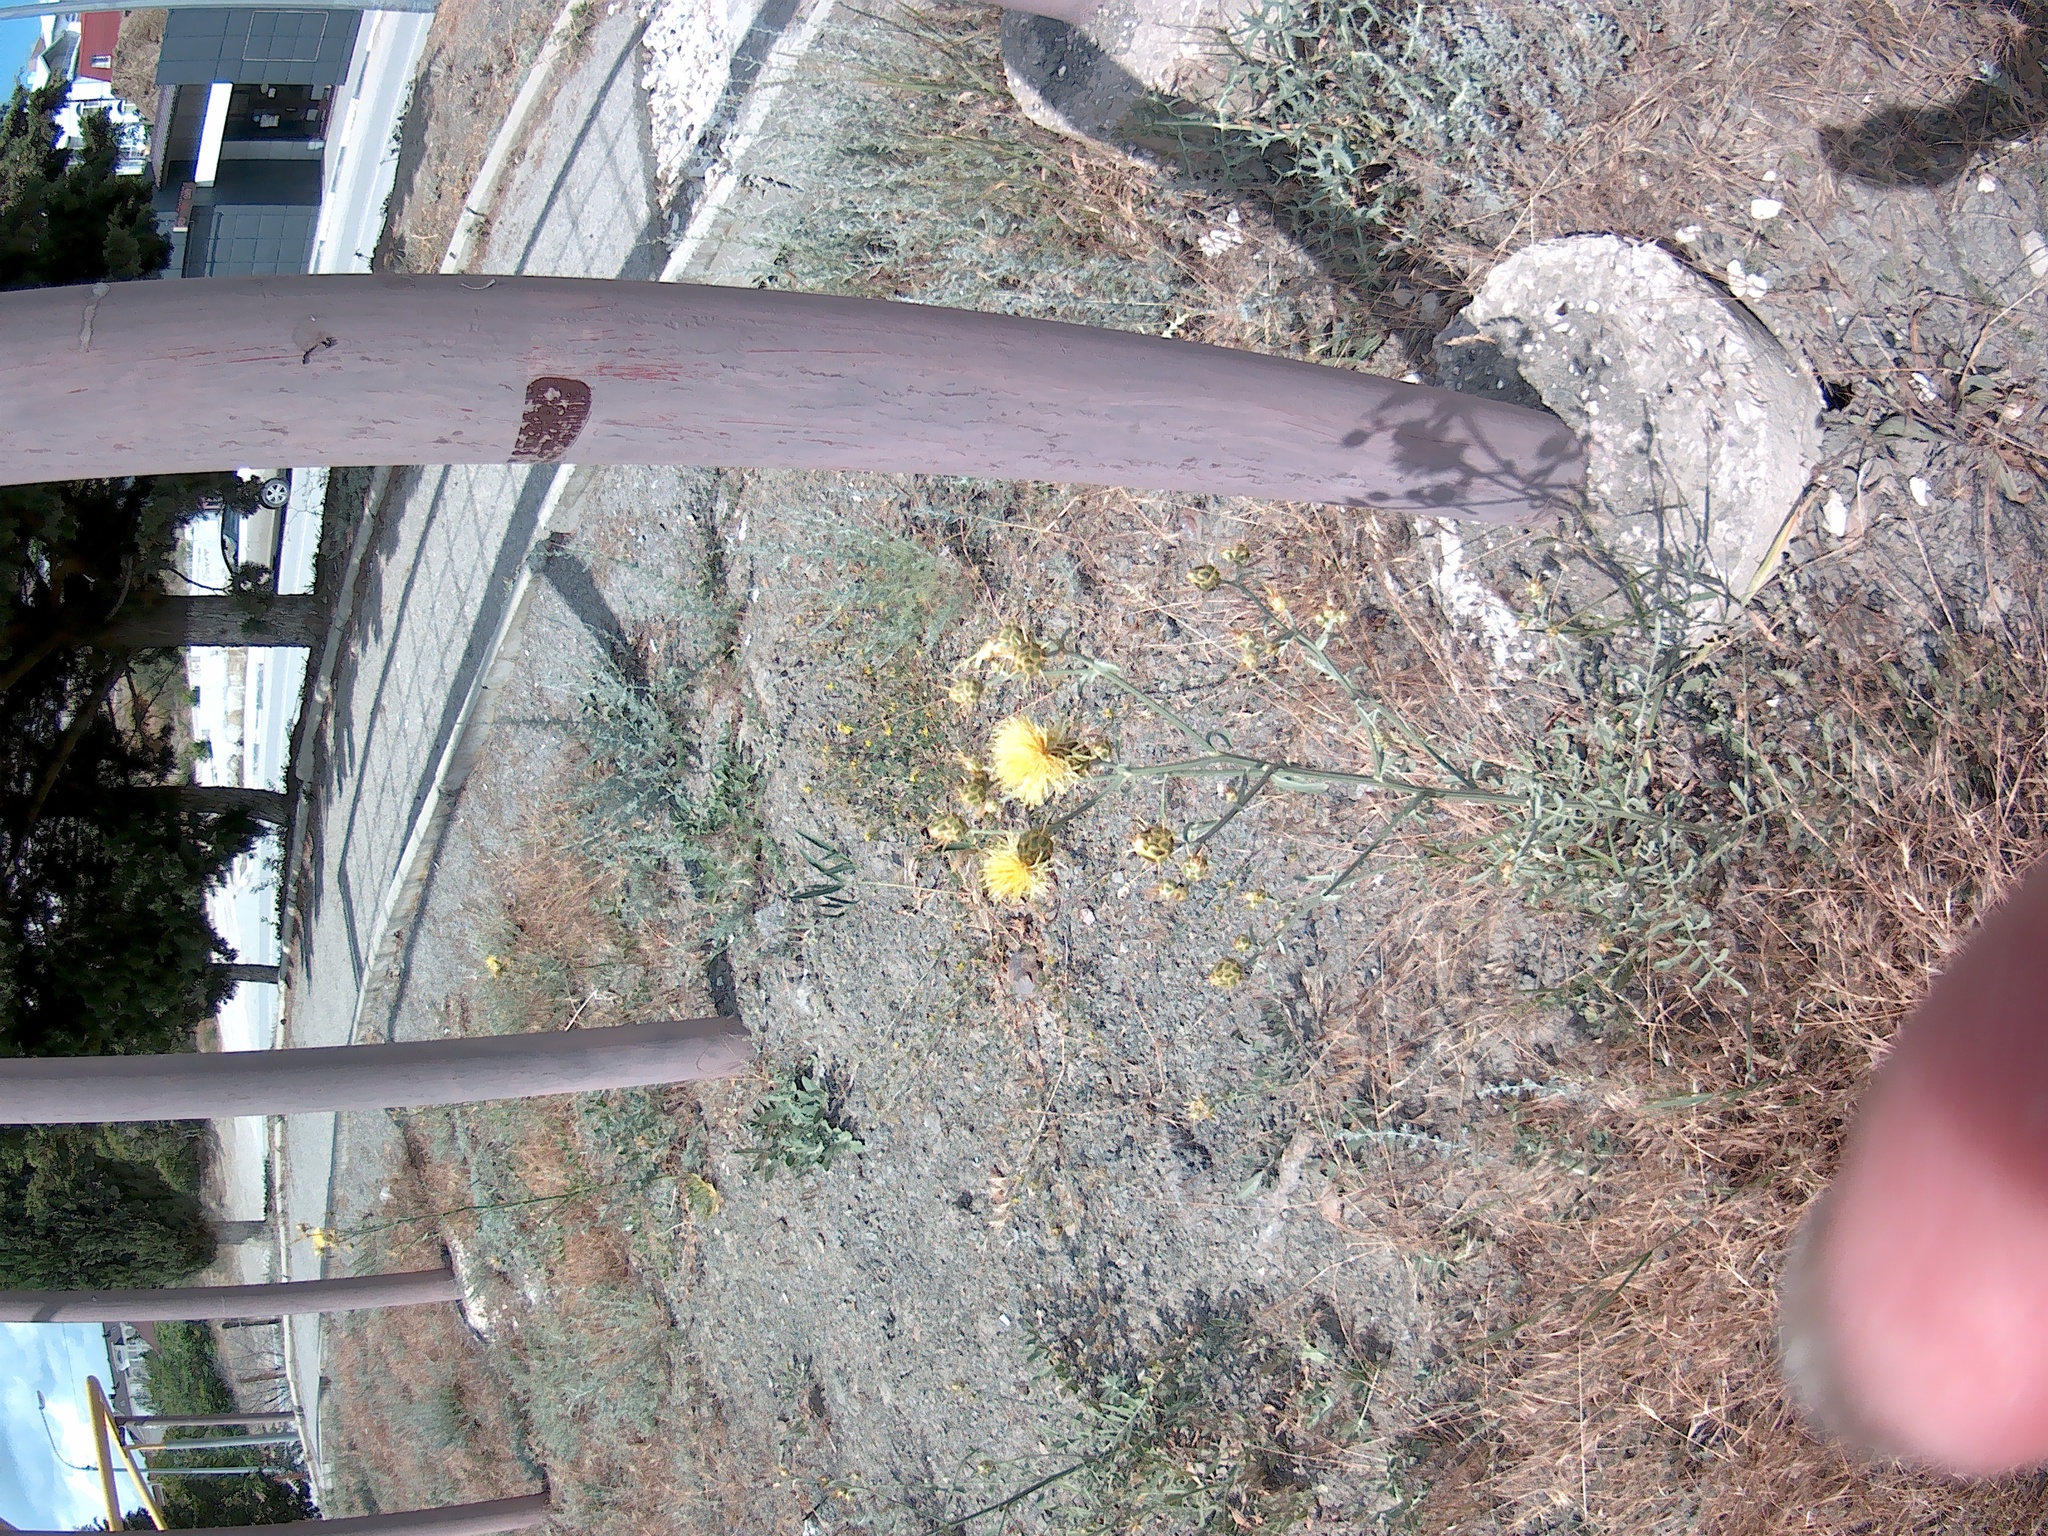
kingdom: Plantae
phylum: Tracheophyta
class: Magnoliopsida
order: Asterales
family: Asteraceae
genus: Centaurea
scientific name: Centaurea salonitana
